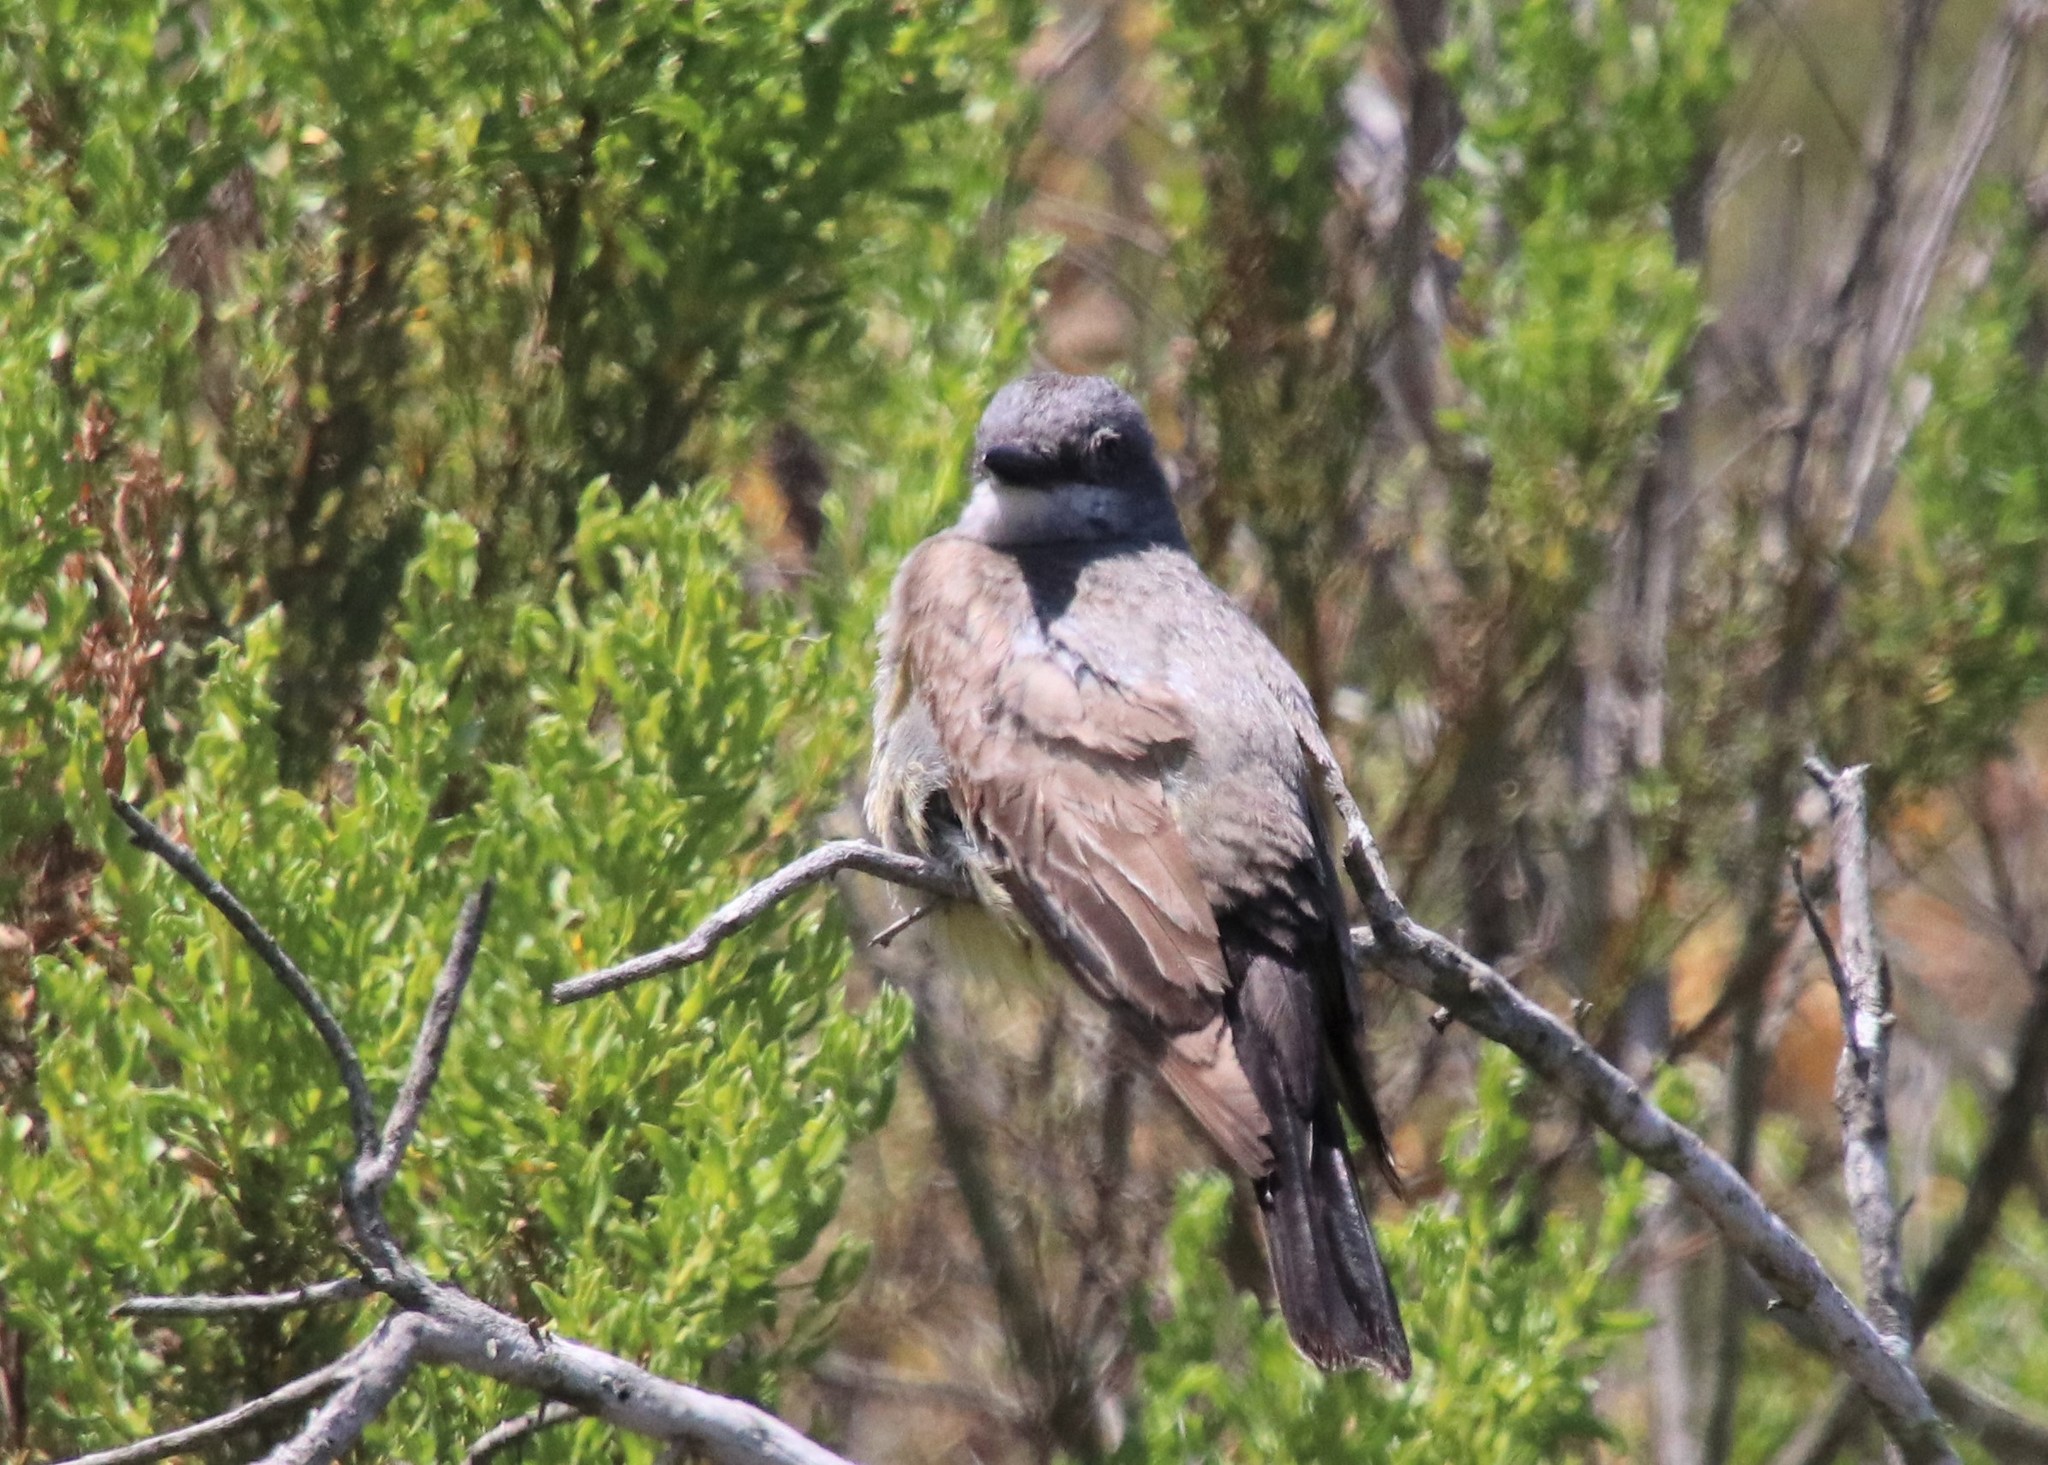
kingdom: Animalia
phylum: Chordata
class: Aves
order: Passeriformes
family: Tyrannidae
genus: Tyrannus
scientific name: Tyrannus vociferans
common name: Cassin's kingbird
